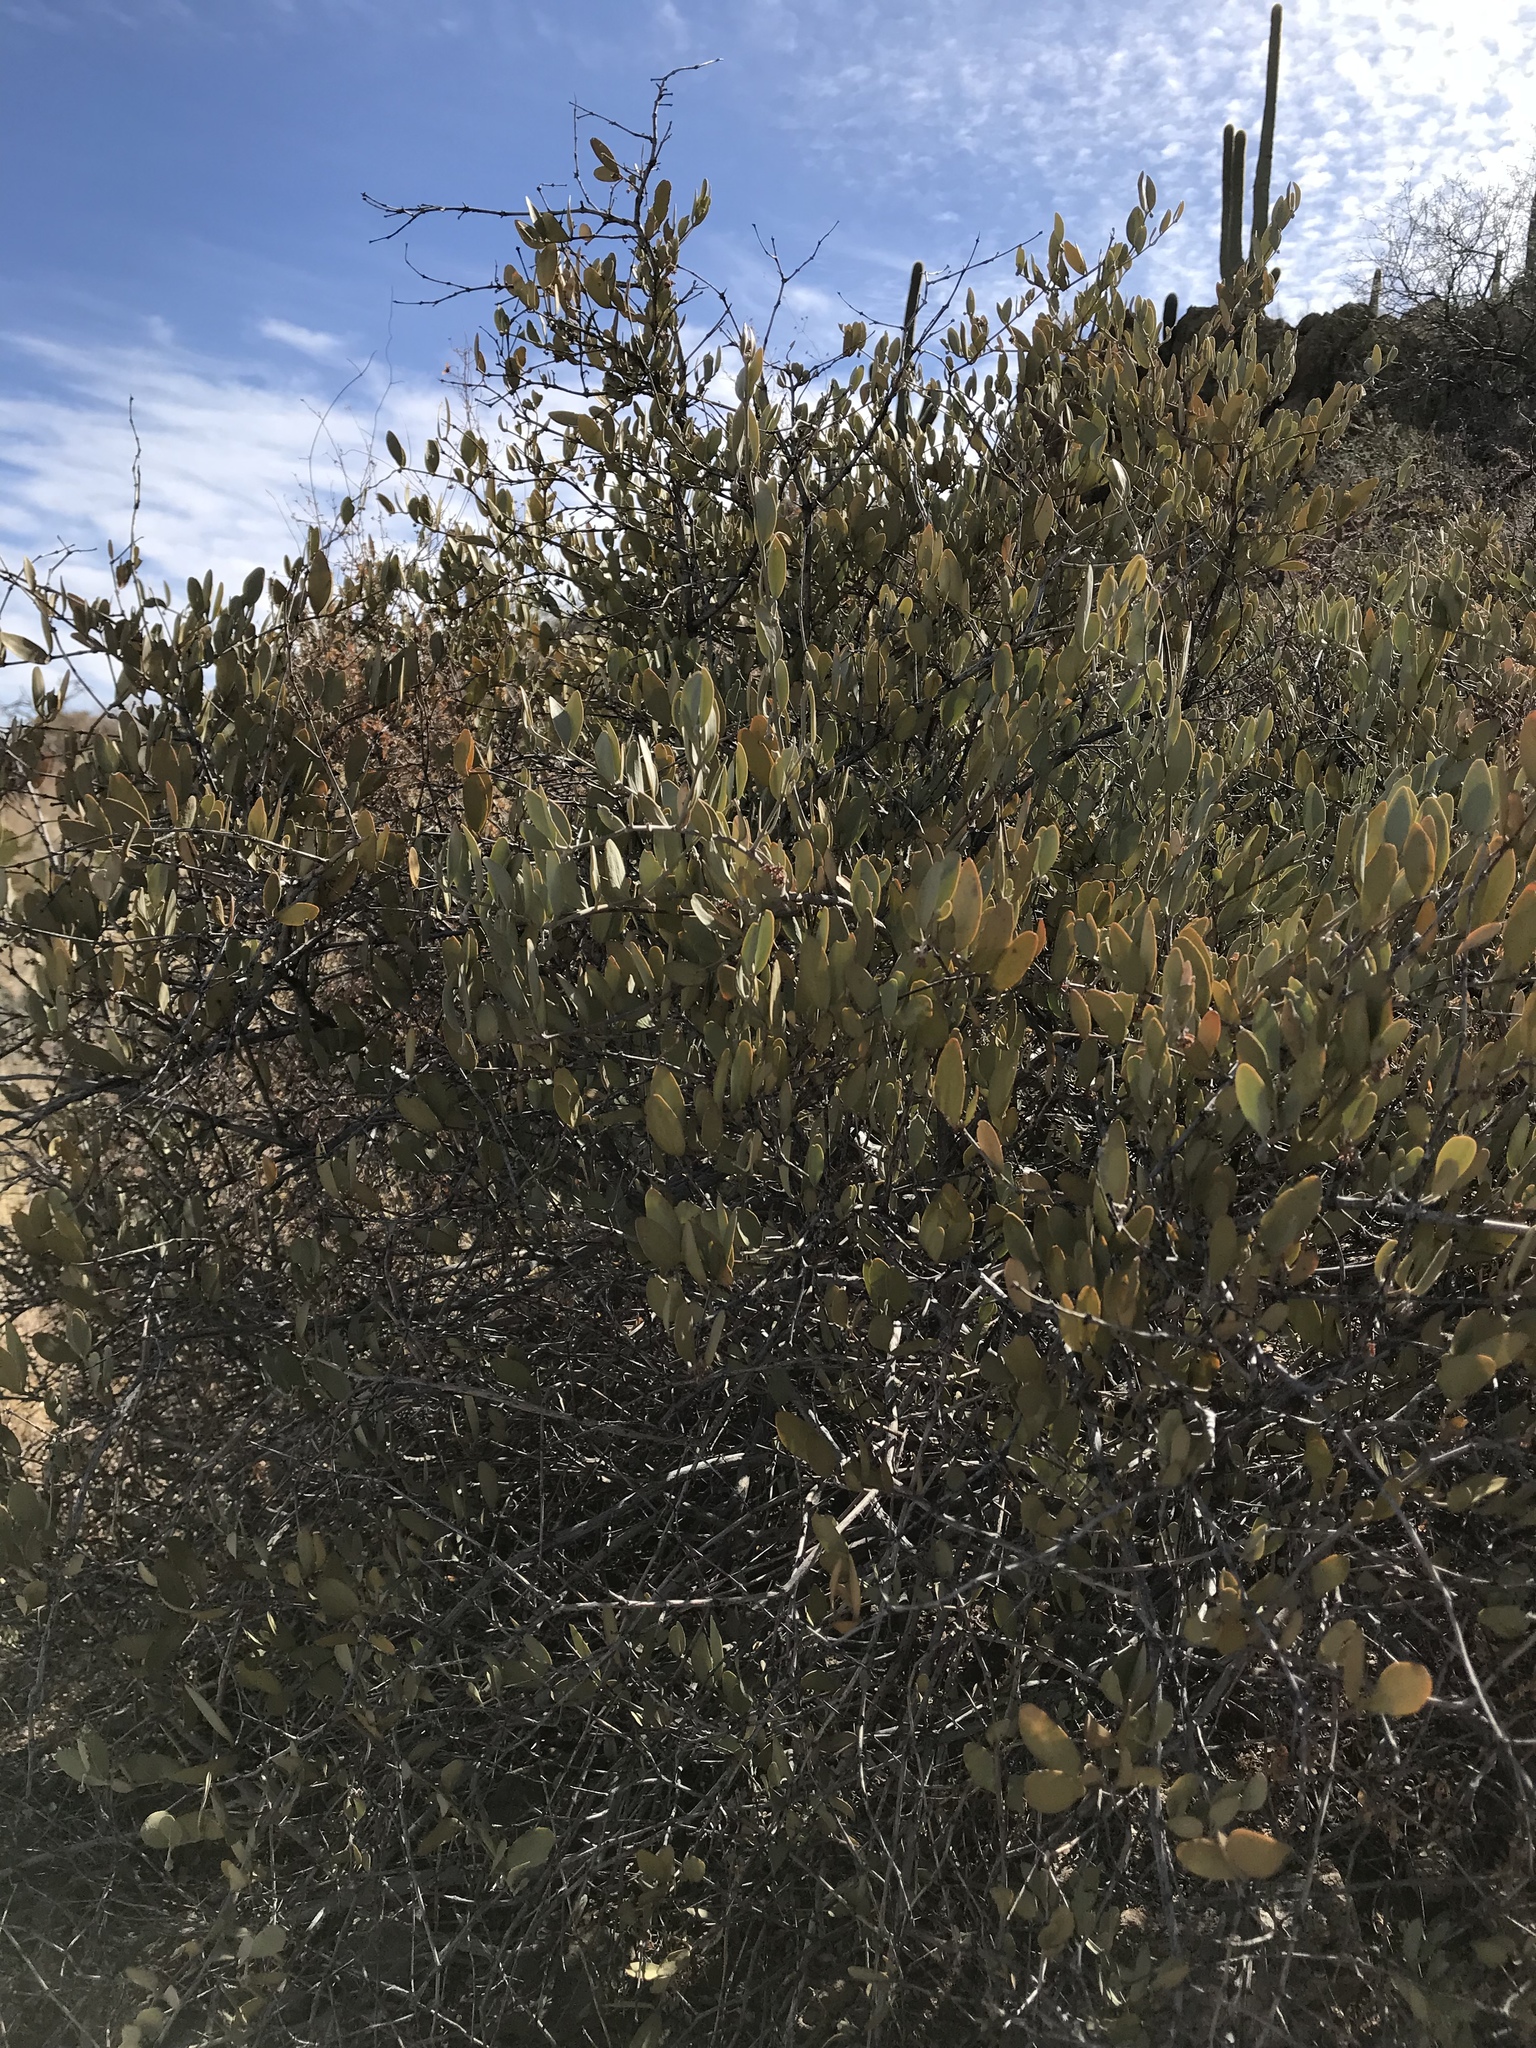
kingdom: Plantae
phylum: Tracheophyta
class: Magnoliopsida
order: Caryophyllales
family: Simmondsiaceae
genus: Simmondsia
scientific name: Simmondsia chinensis
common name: Jojoba
